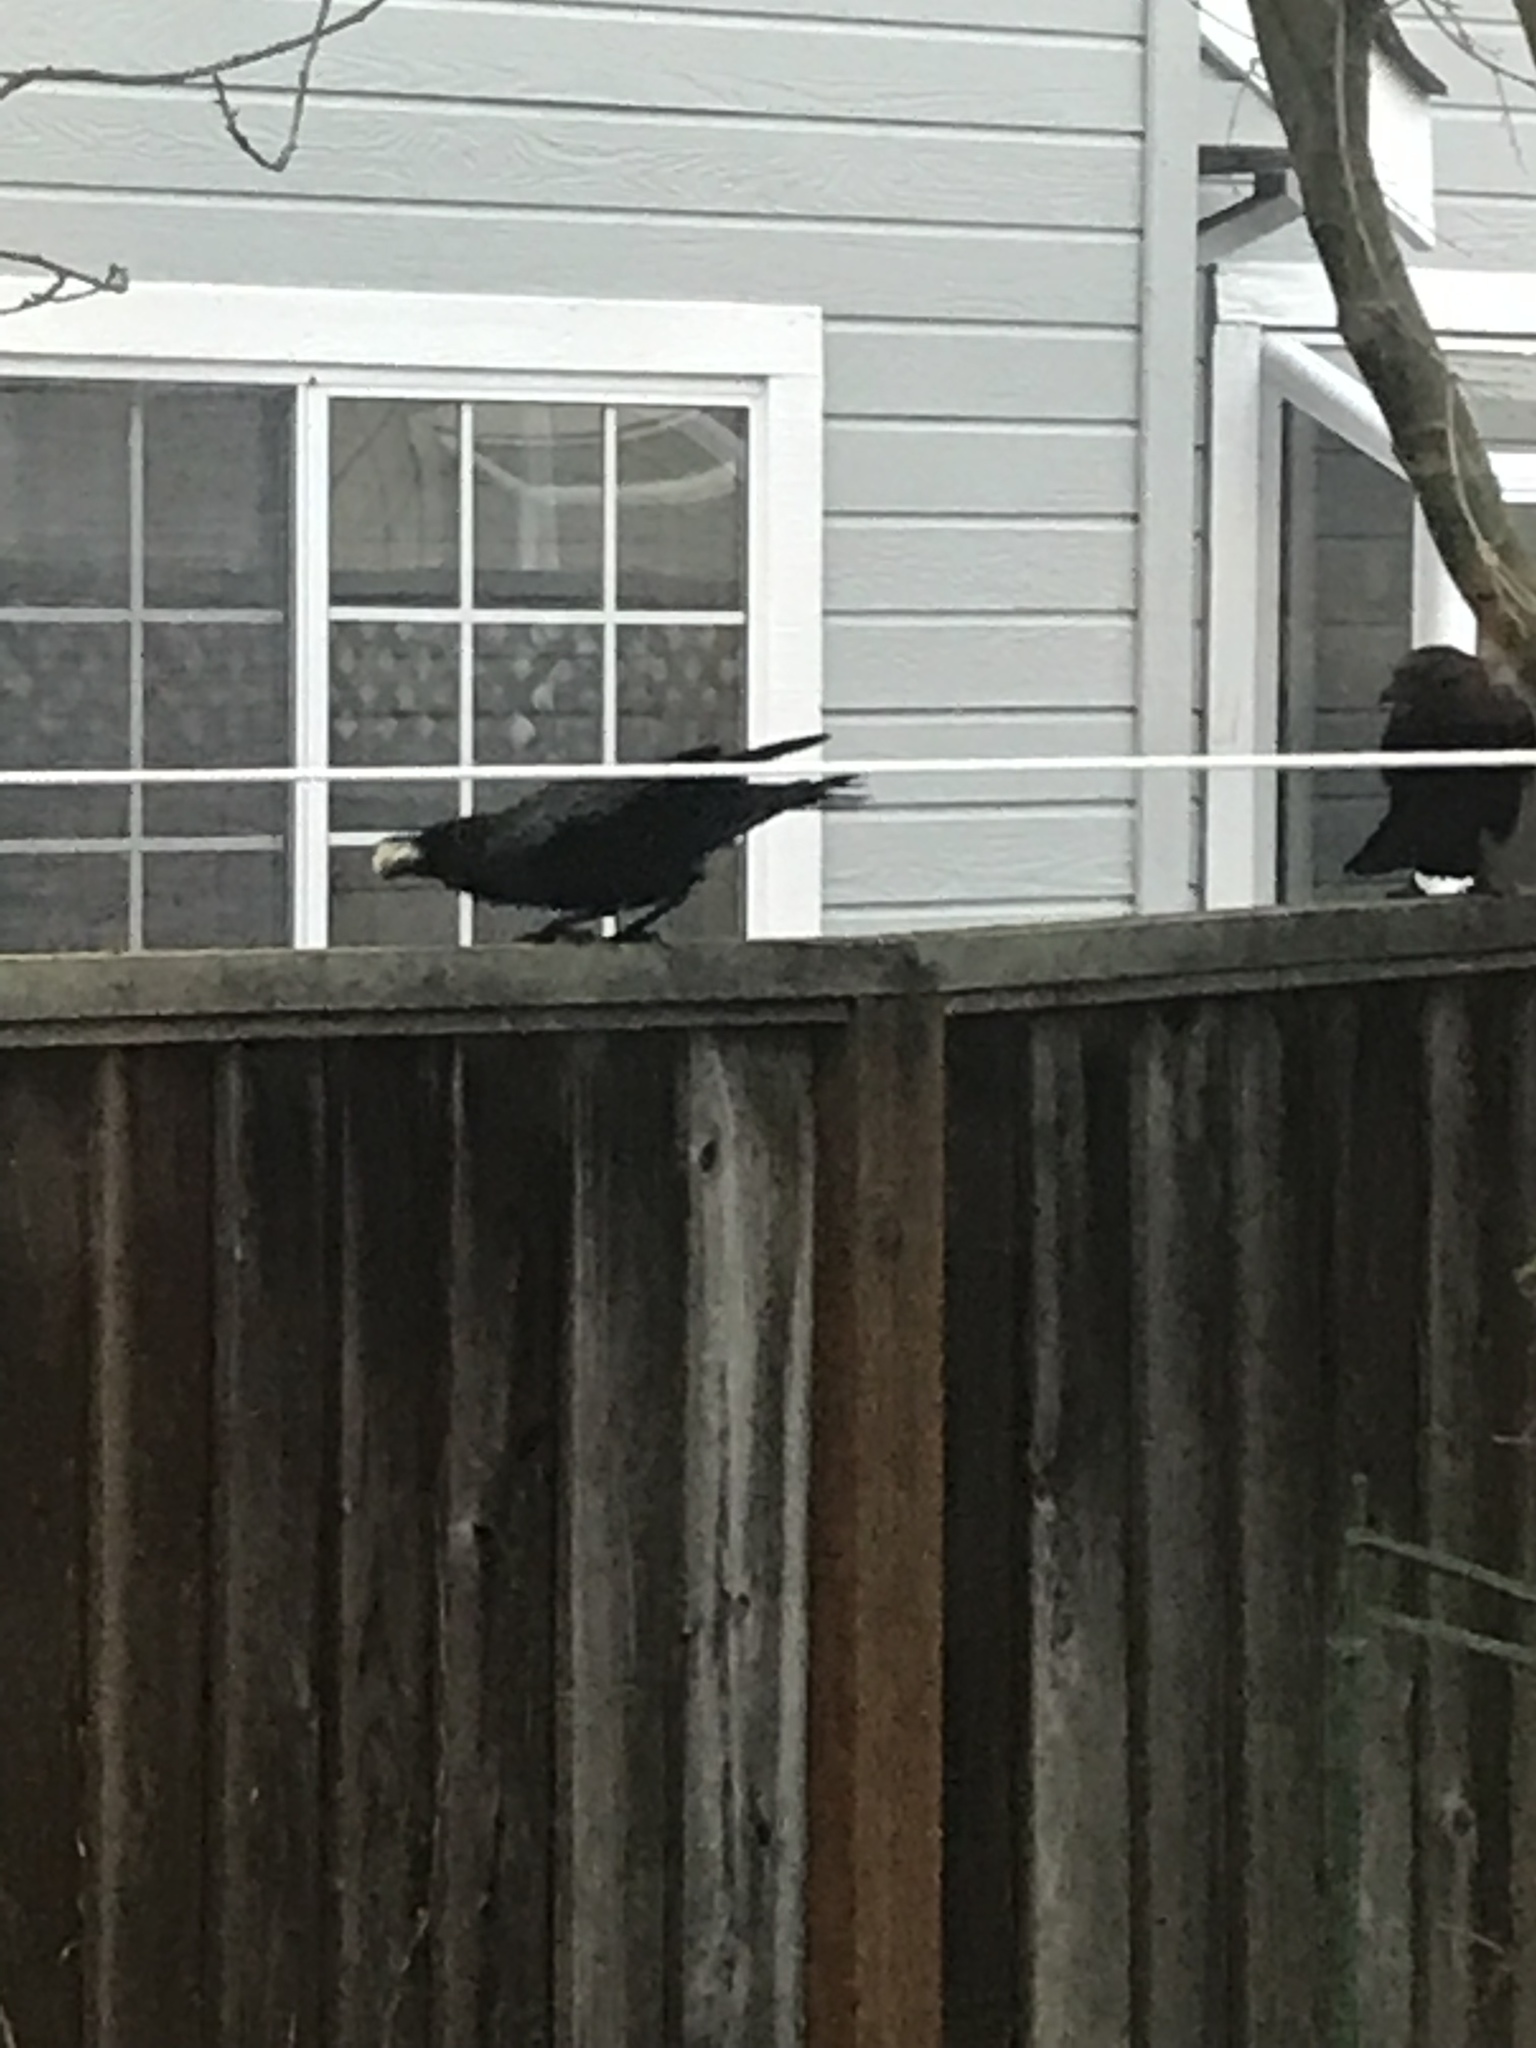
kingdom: Animalia
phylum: Chordata
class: Aves
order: Passeriformes
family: Corvidae
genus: Corvus
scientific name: Corvus brachyrhynchos
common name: American crow
